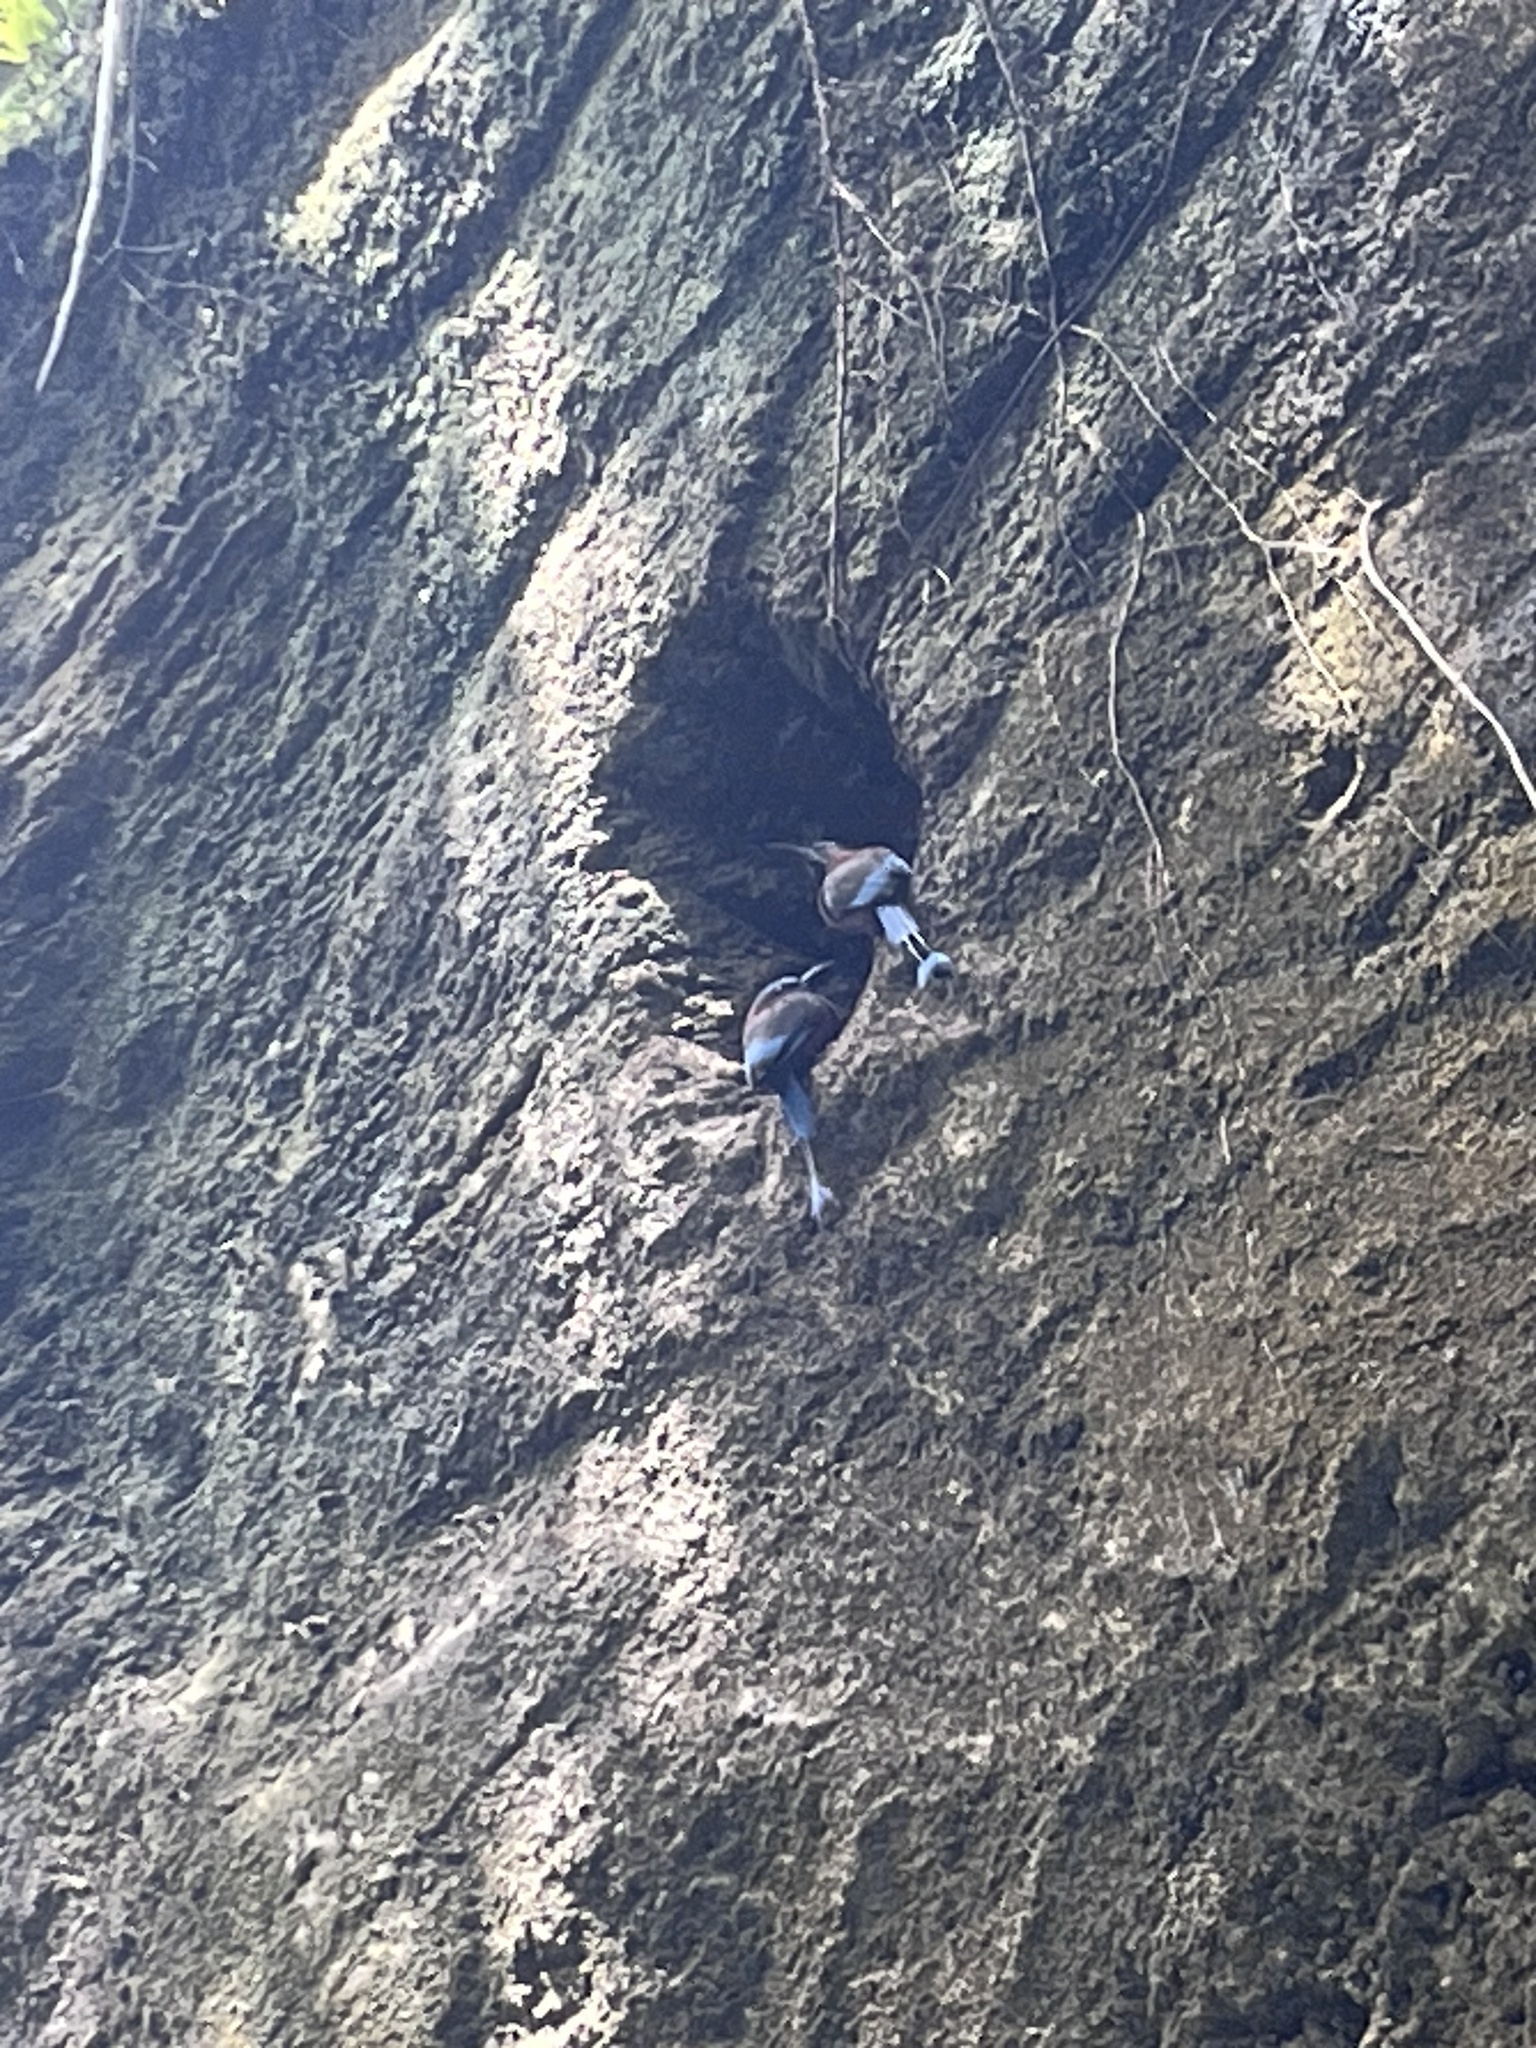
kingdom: Animalia
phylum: Chordata
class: Aves
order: Coraciiformes
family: Momotidae
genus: Eumomota
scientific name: Eumomota superciliosa
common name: Turquoise-browed motmot
